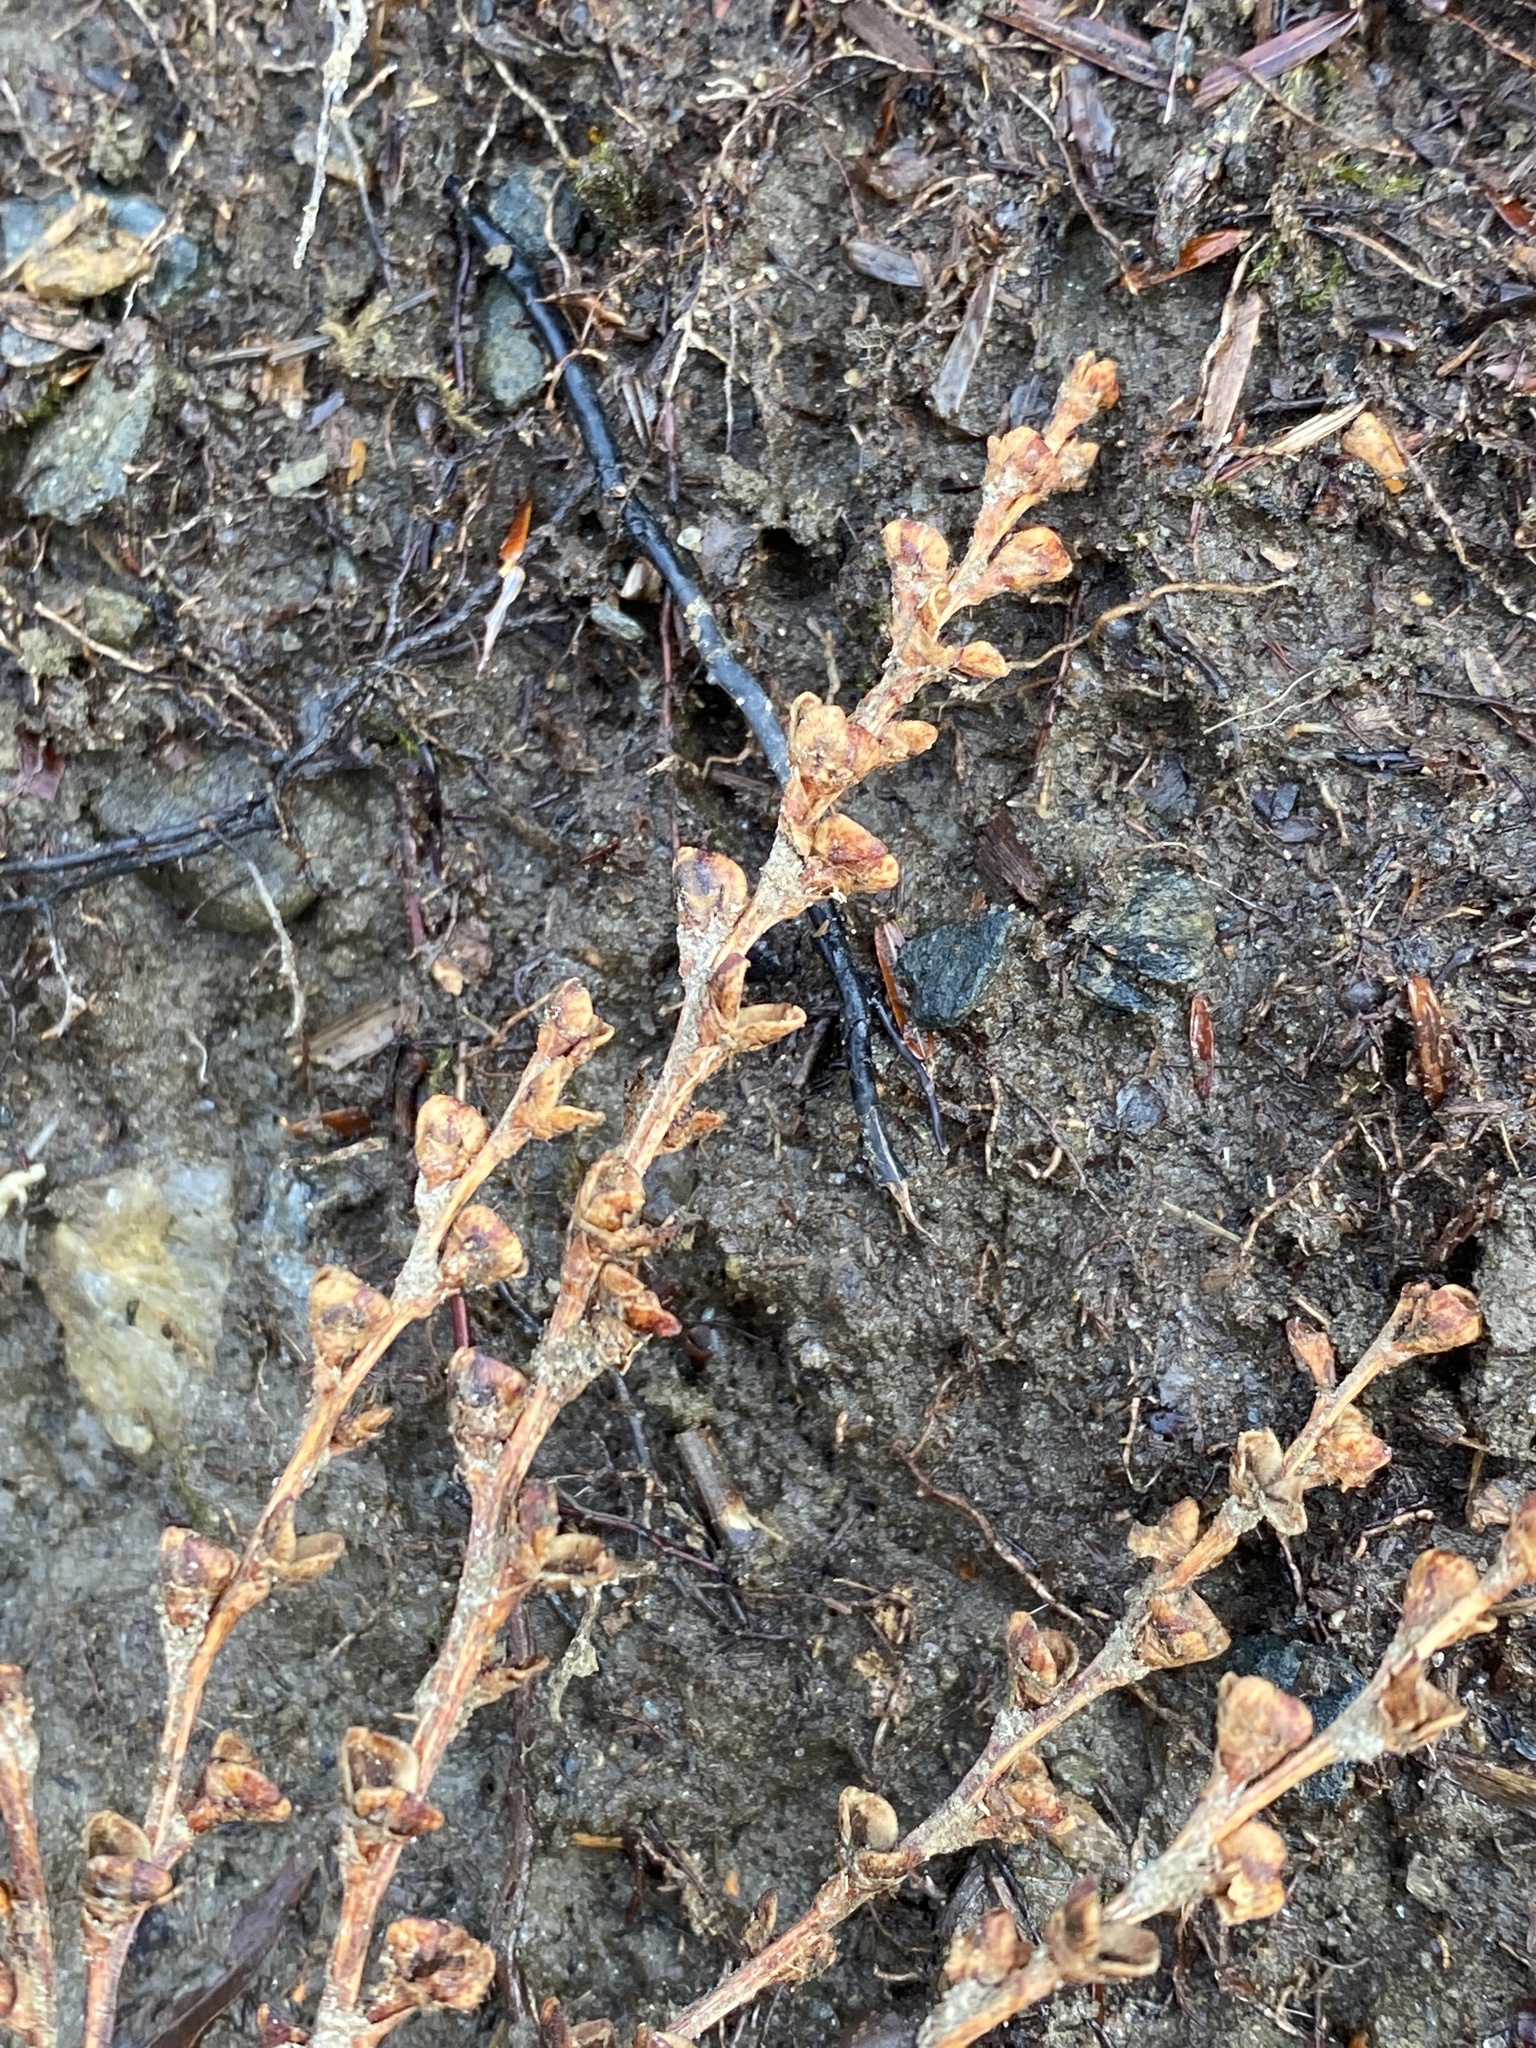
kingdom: Plantae
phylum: Tracheophyta
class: Magnoliopsida
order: Lamiales
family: Orobanchaceae
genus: Epifagus
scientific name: Epifagus virginiana
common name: Beechdrops
